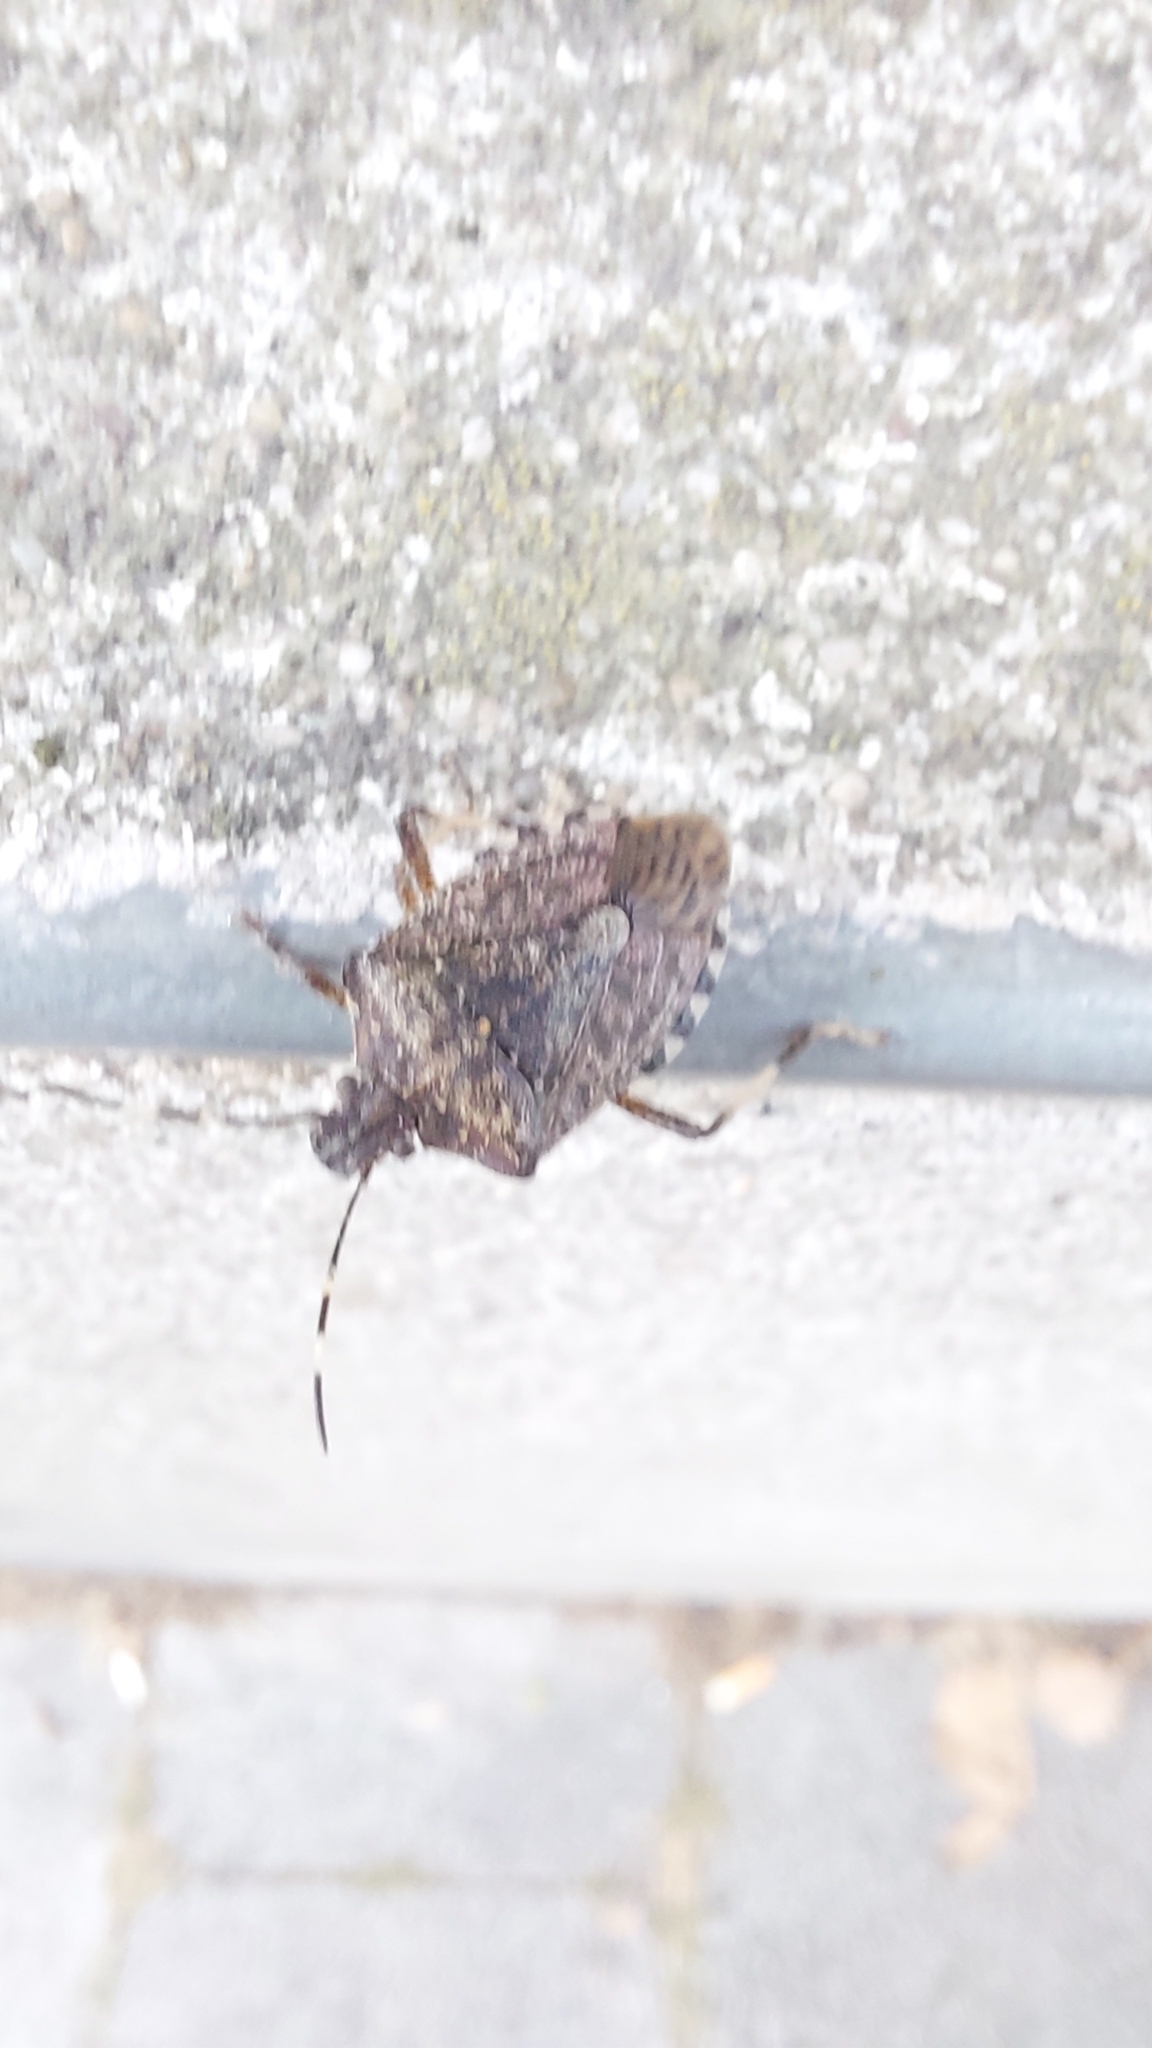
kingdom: Animalia
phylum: Arthropoda
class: Insecta
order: Hemiptera
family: Pentatomidae
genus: Halyomorpha
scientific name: Halyomorpha halys
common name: Brown marmorated stink bug
